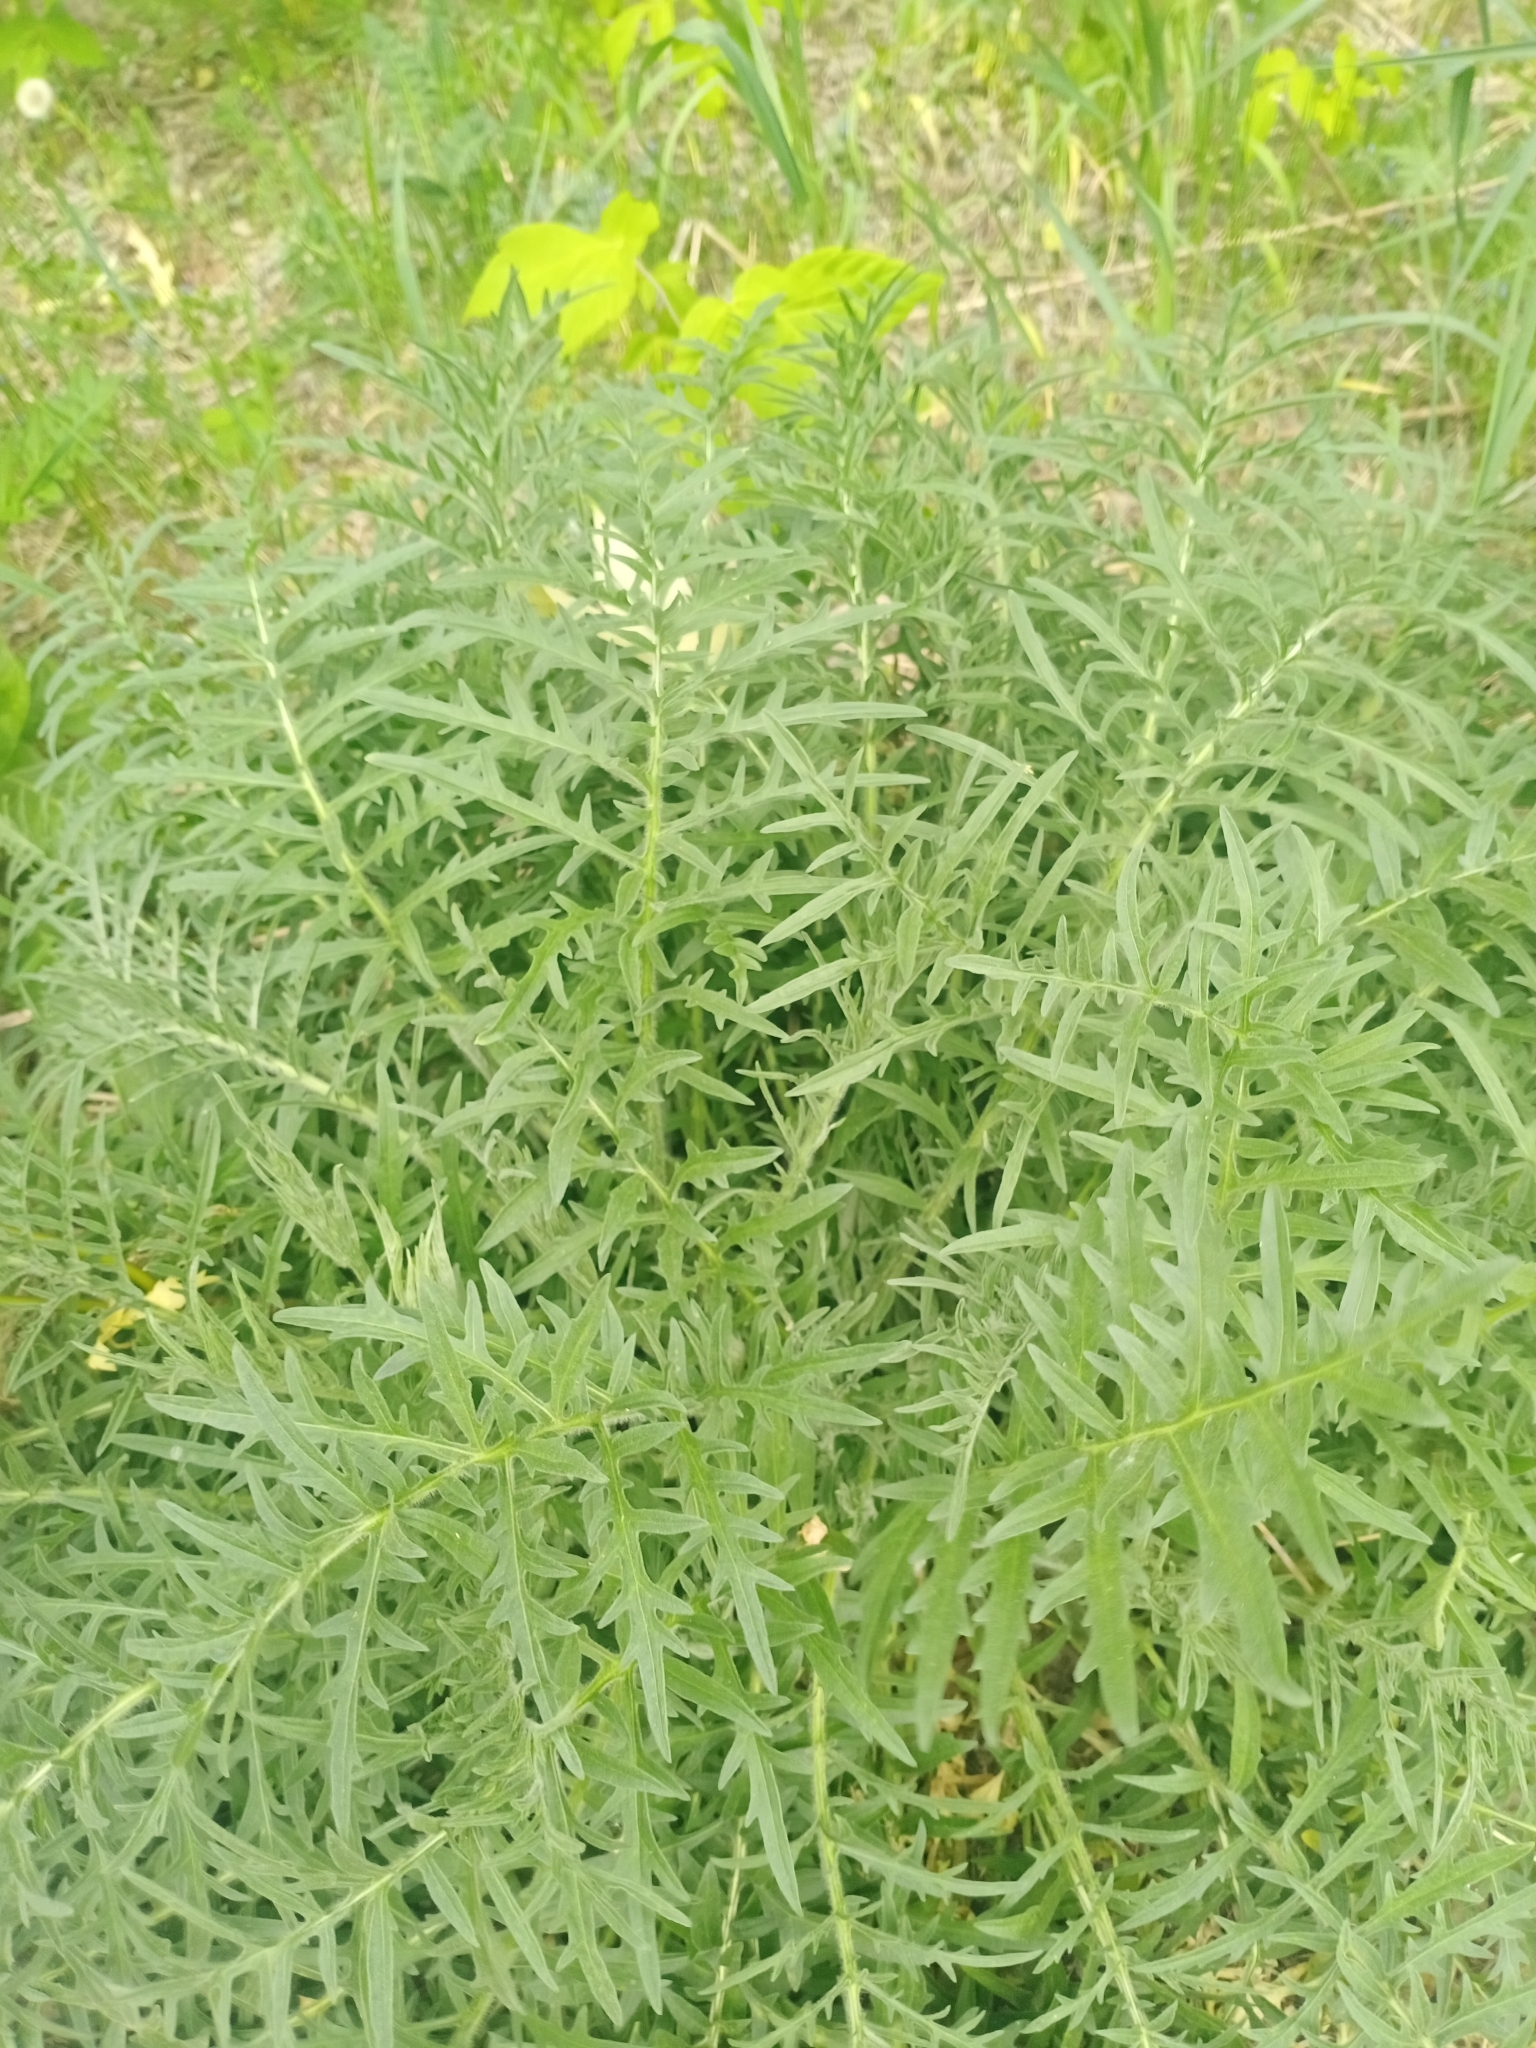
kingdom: Plantae
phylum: Tracheophyta
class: Magnoliopsida
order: Asterales
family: Asteraceae
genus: Centaurea
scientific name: Centaurea scabiosa
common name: Greater knapweed
